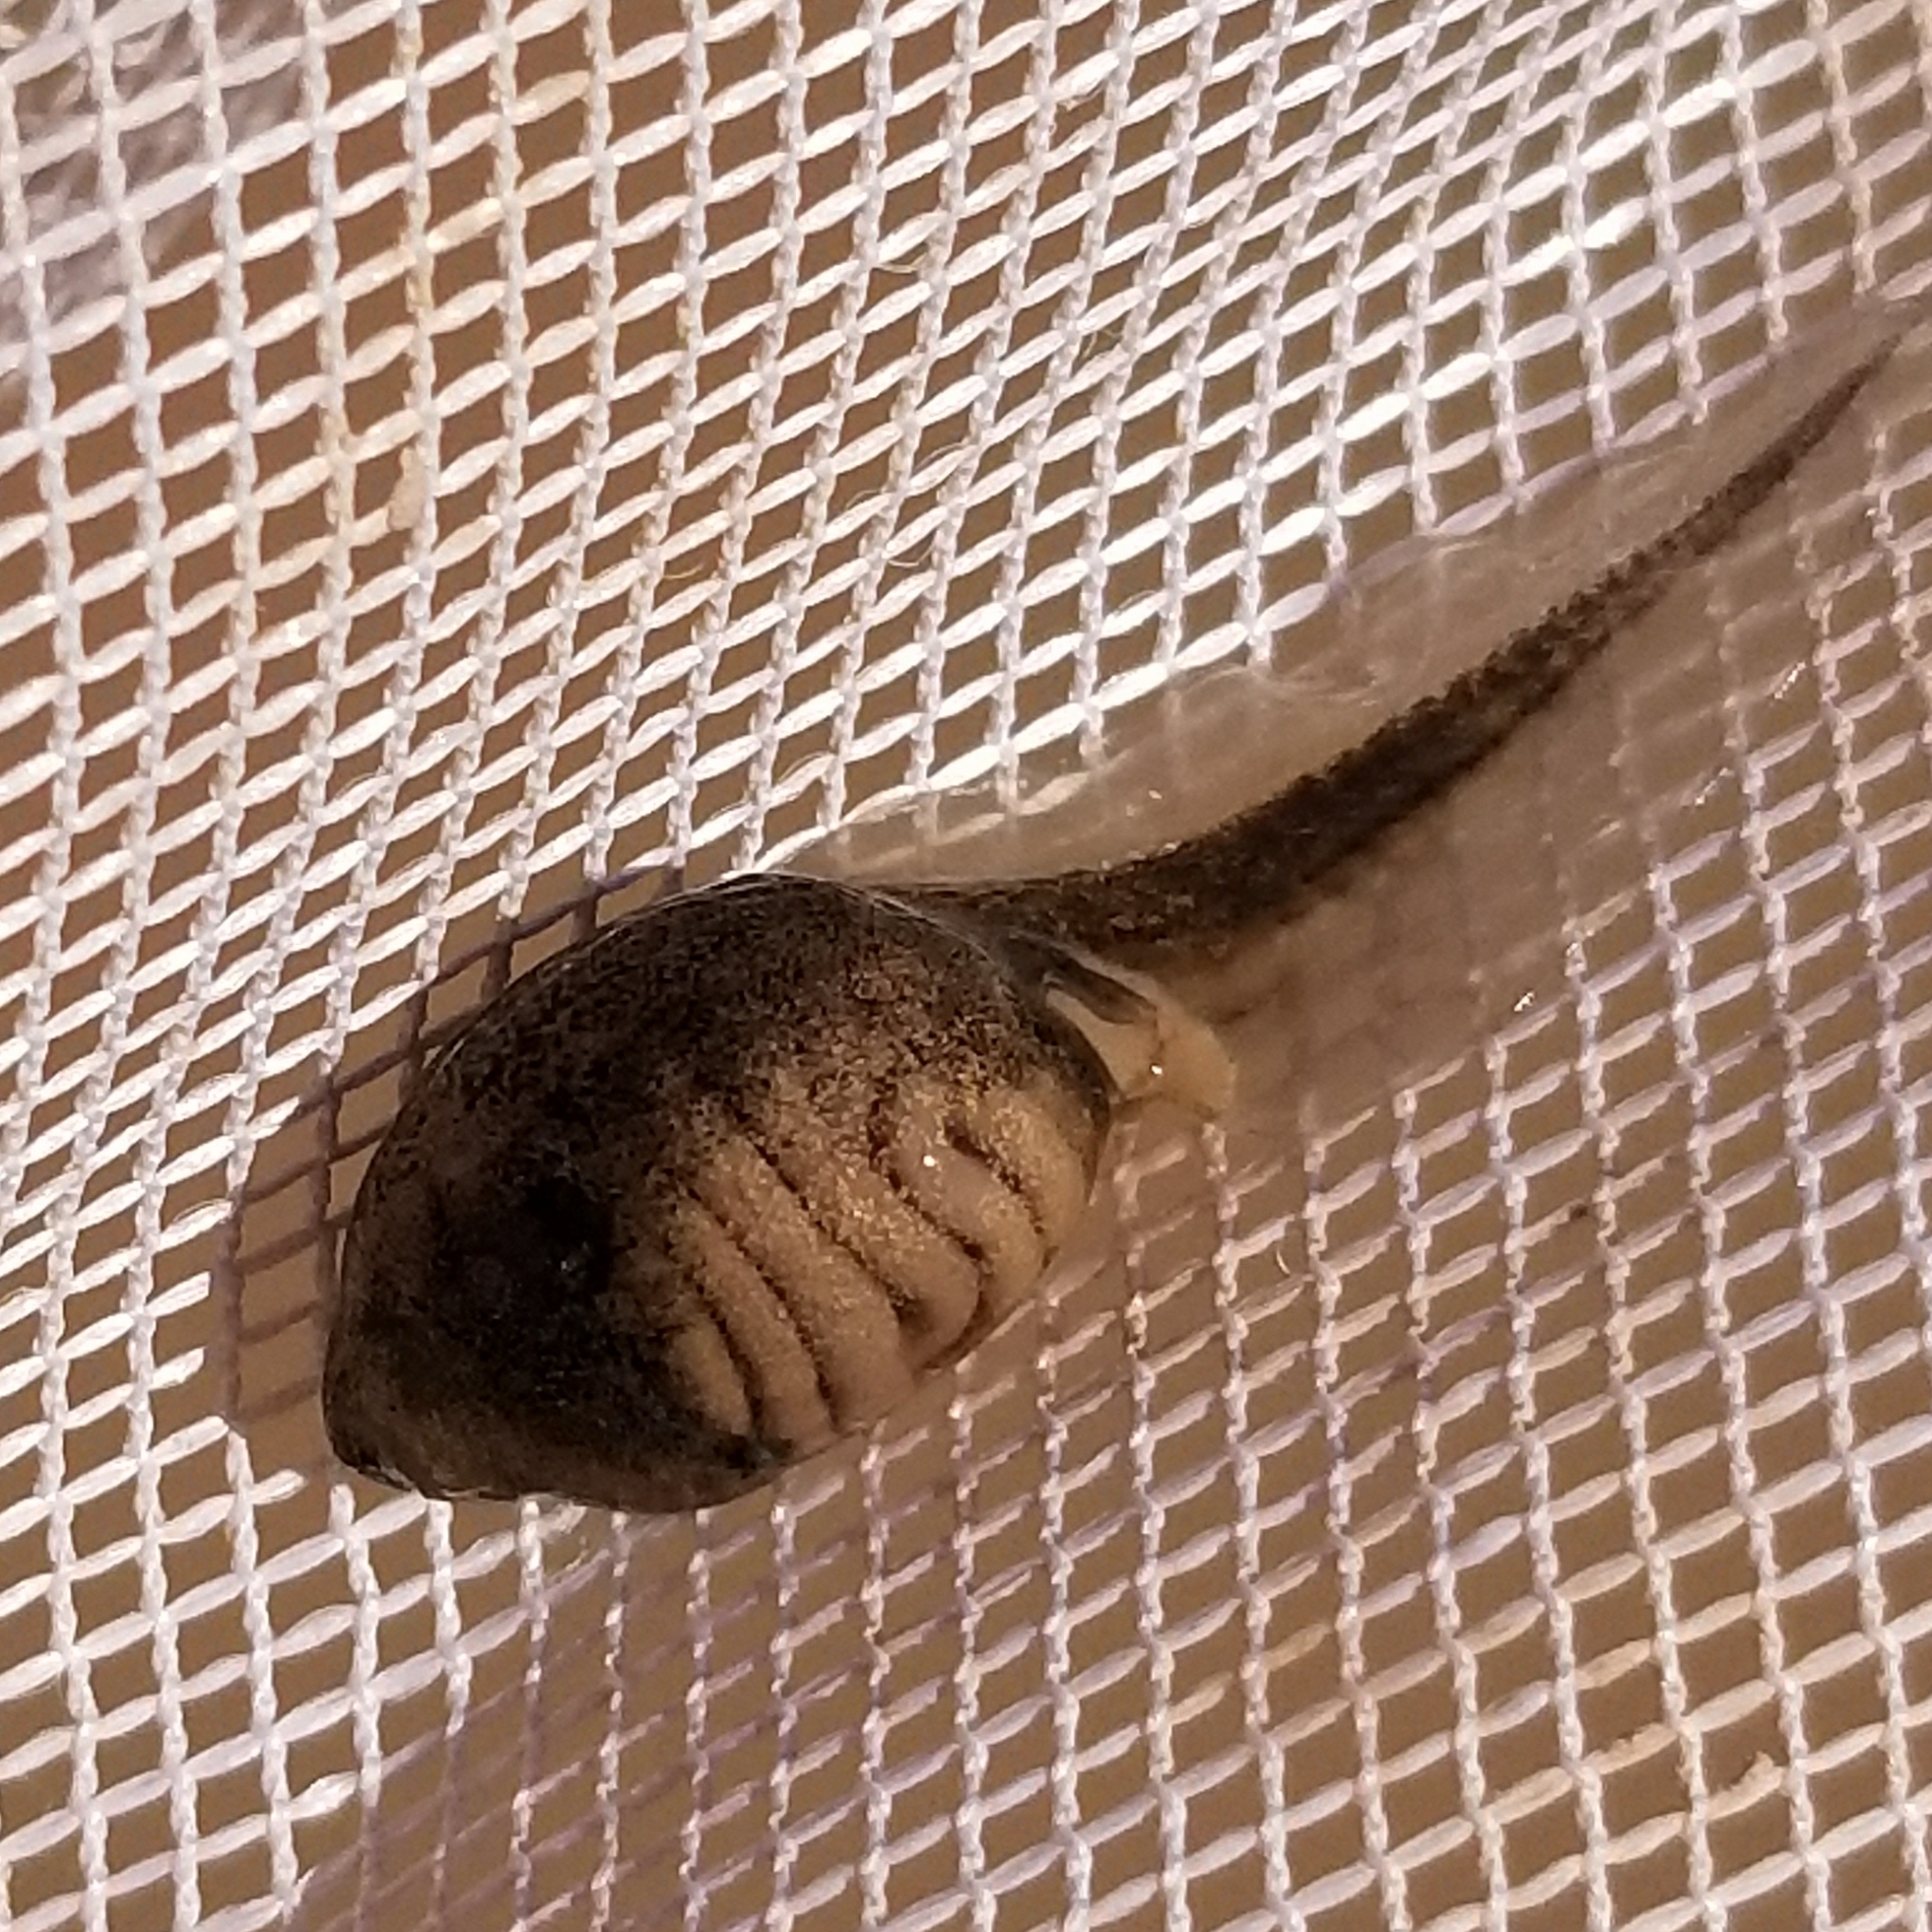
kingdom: Animalia
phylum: Chordata
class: Amphibia
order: Anura
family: Scaphiopodidae
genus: Scaphiopus
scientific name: Scaphiopus couchii
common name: Couch's spadefoot toad
